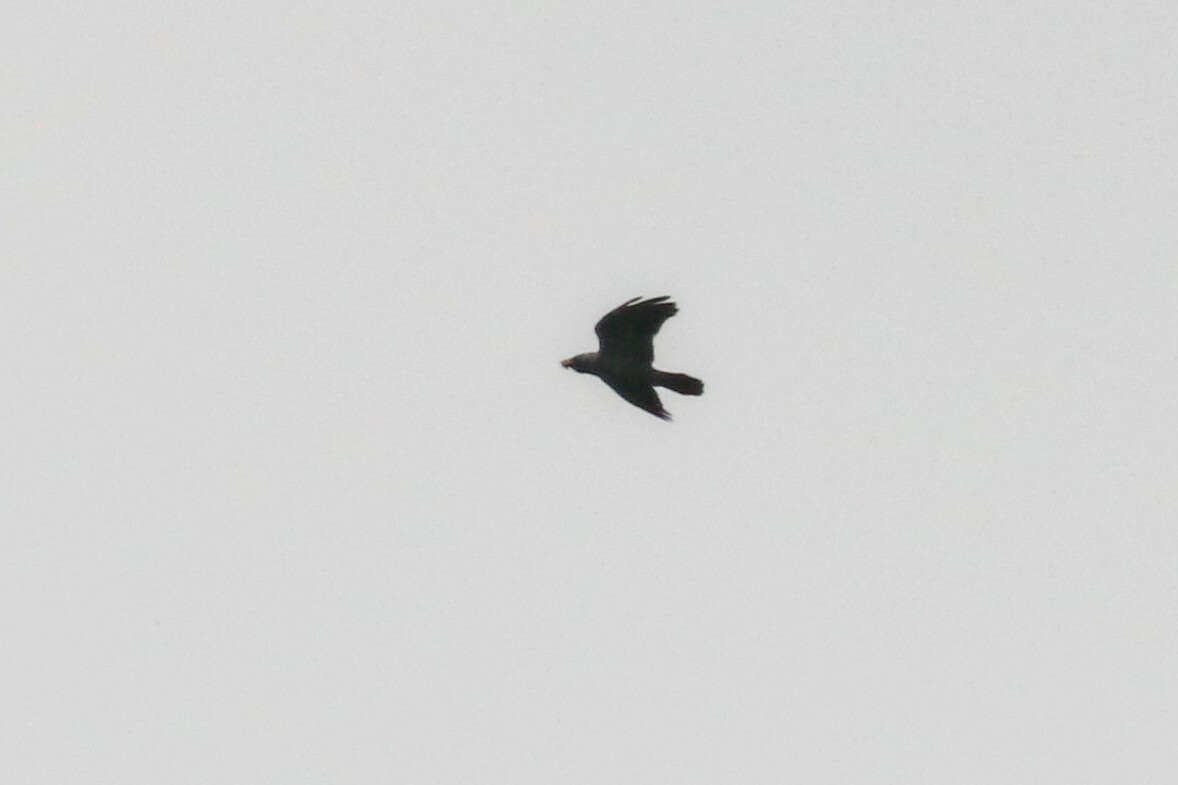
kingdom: Animalia
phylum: Chordata
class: Aves
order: Passeriformes
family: Corvidae
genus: Corvus
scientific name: Corvus corax
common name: Common raven
